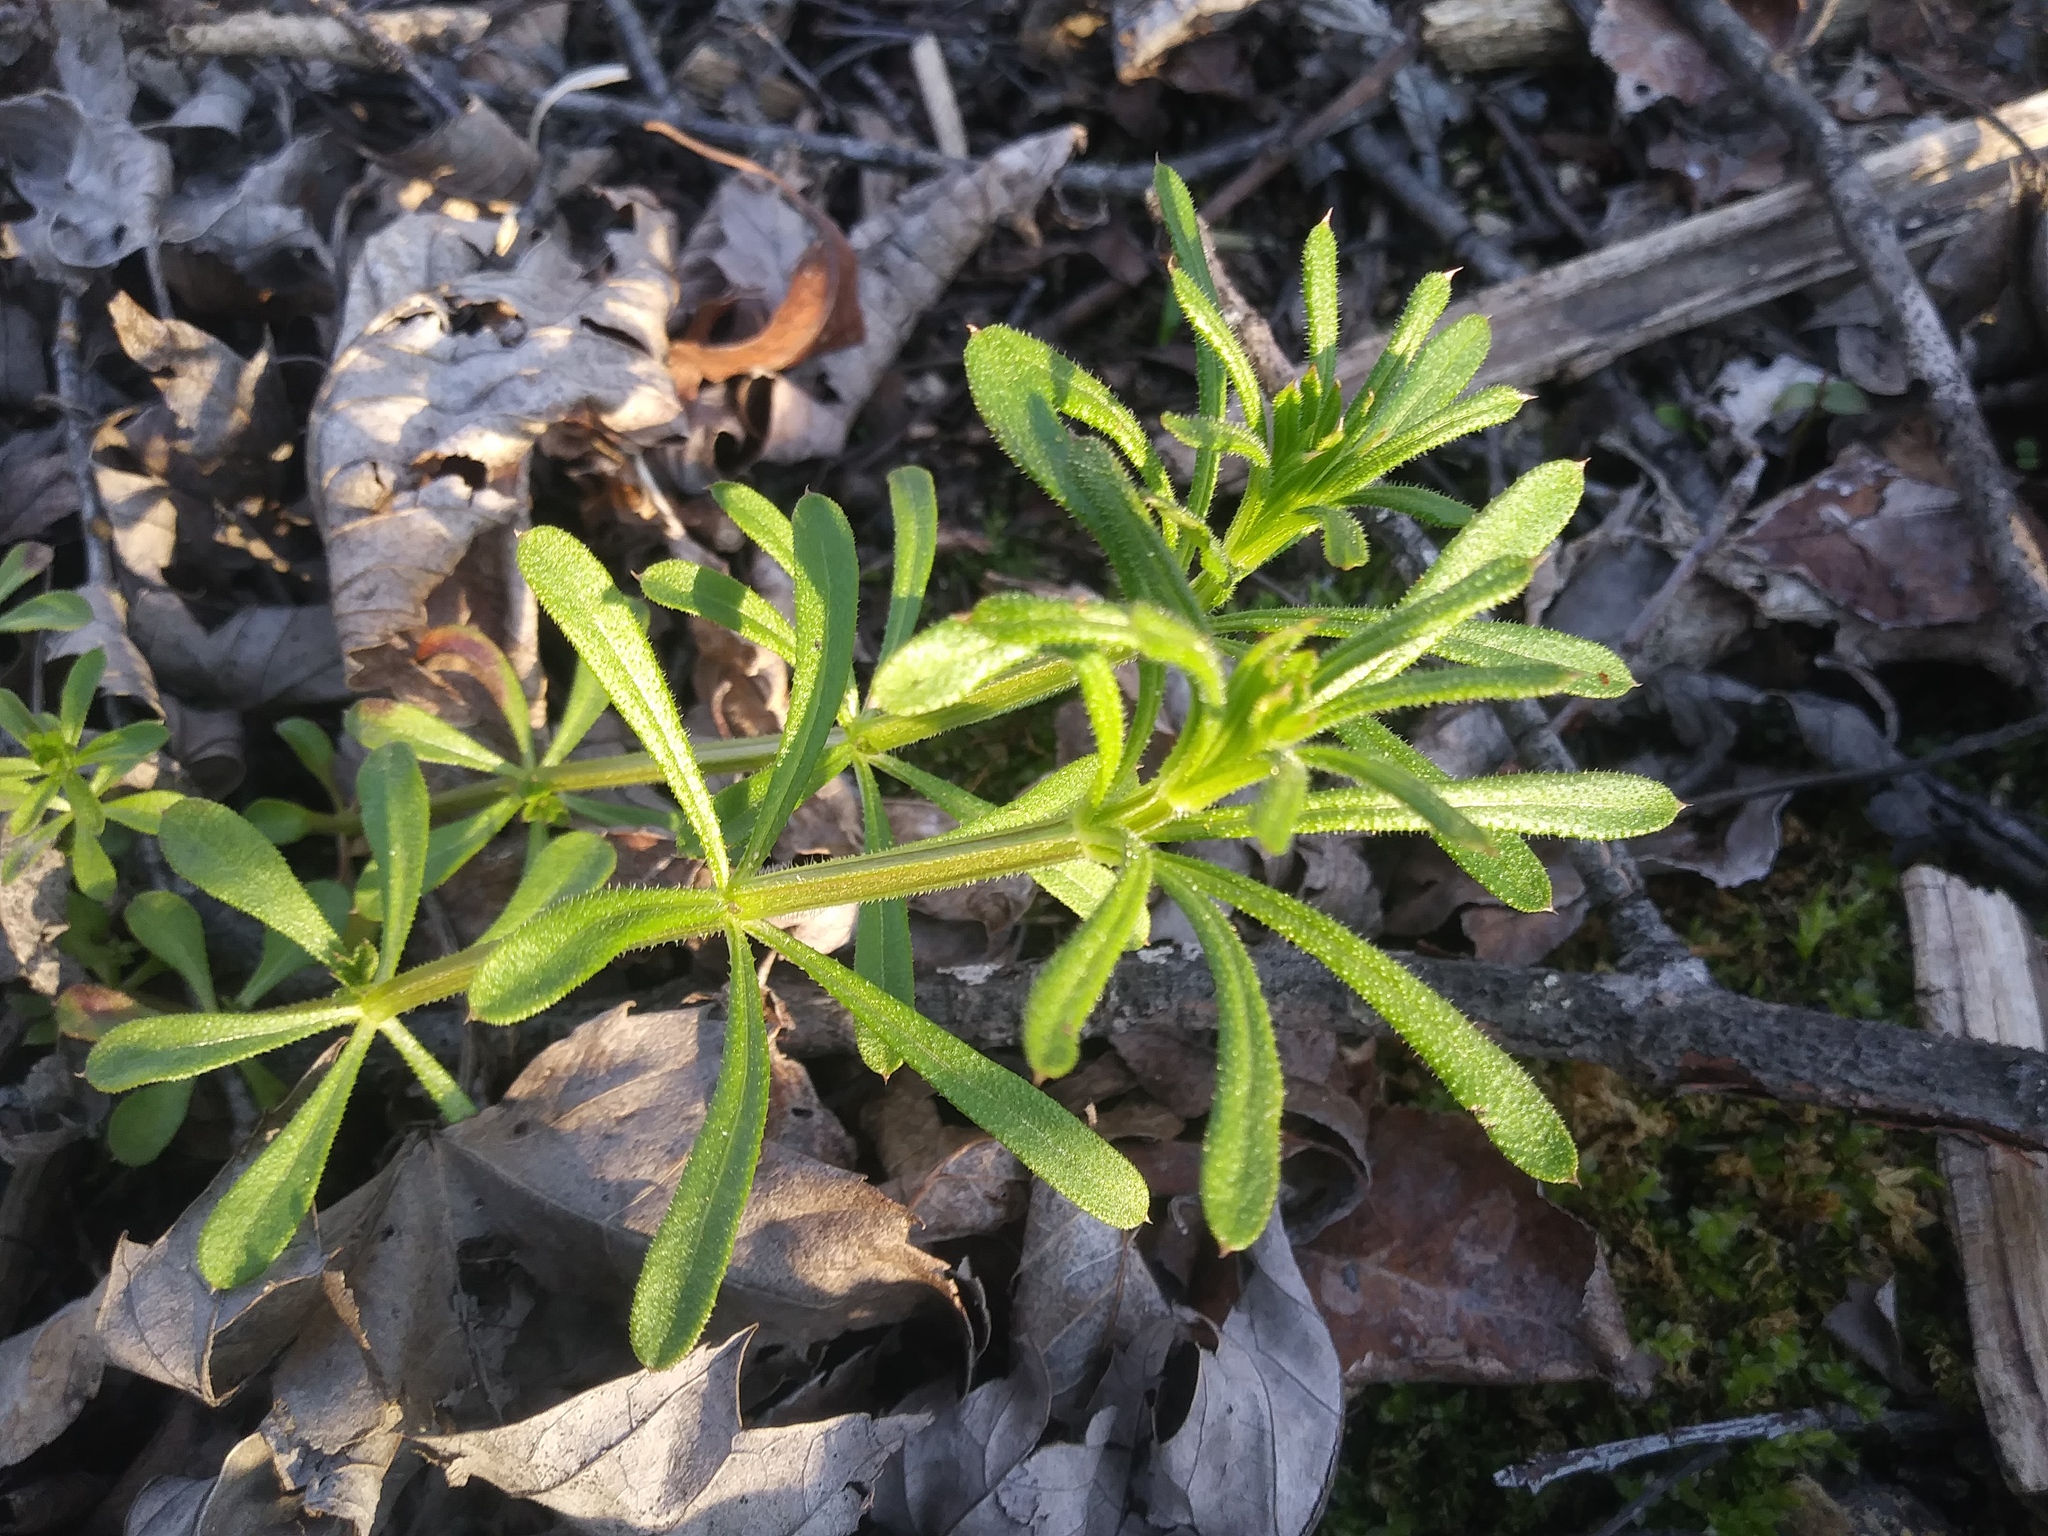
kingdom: Plantae
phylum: Tracheophyta
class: Magnoliopsida
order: Gentianales
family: Rubiaceae
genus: Galium
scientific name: Galium aparine
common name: Cleavers
